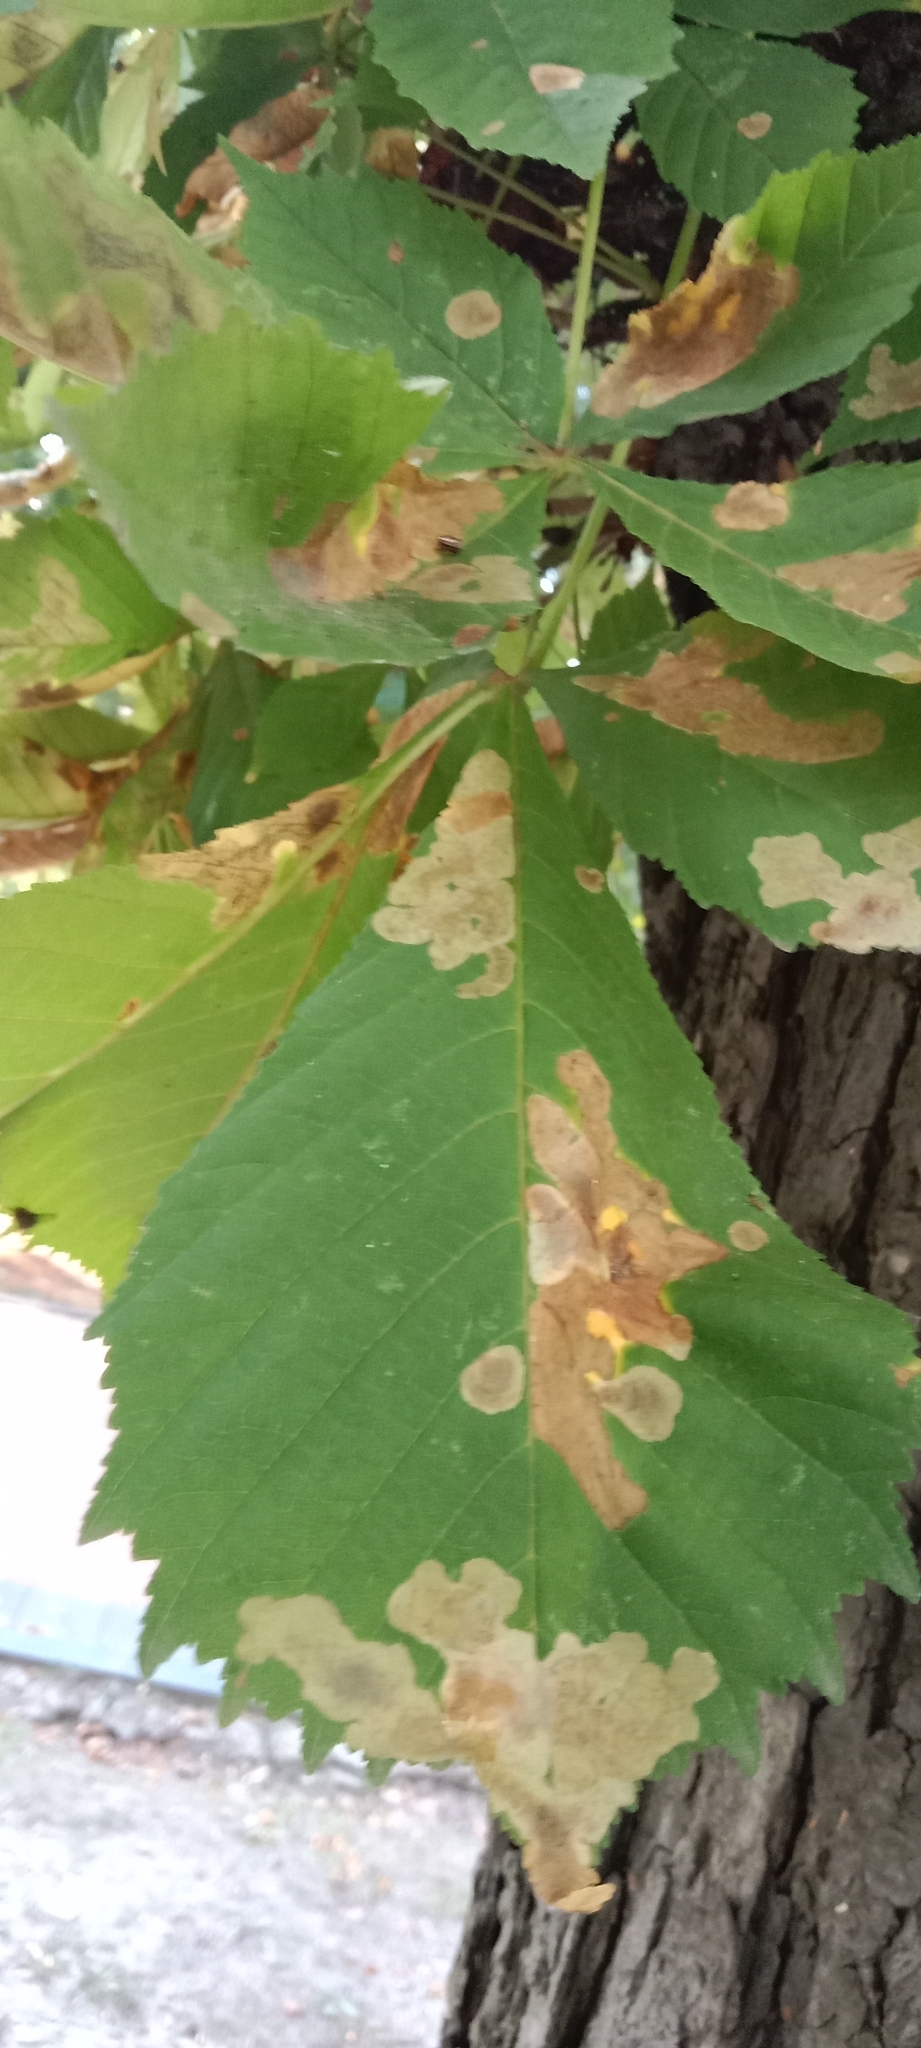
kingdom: Animalia
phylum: Arthropoda
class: Insecta
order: Lepidoptera
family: Gracillariidae
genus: Cameraria
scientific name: Cameraria ohridella
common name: Horse-chestnut leaf-miner
